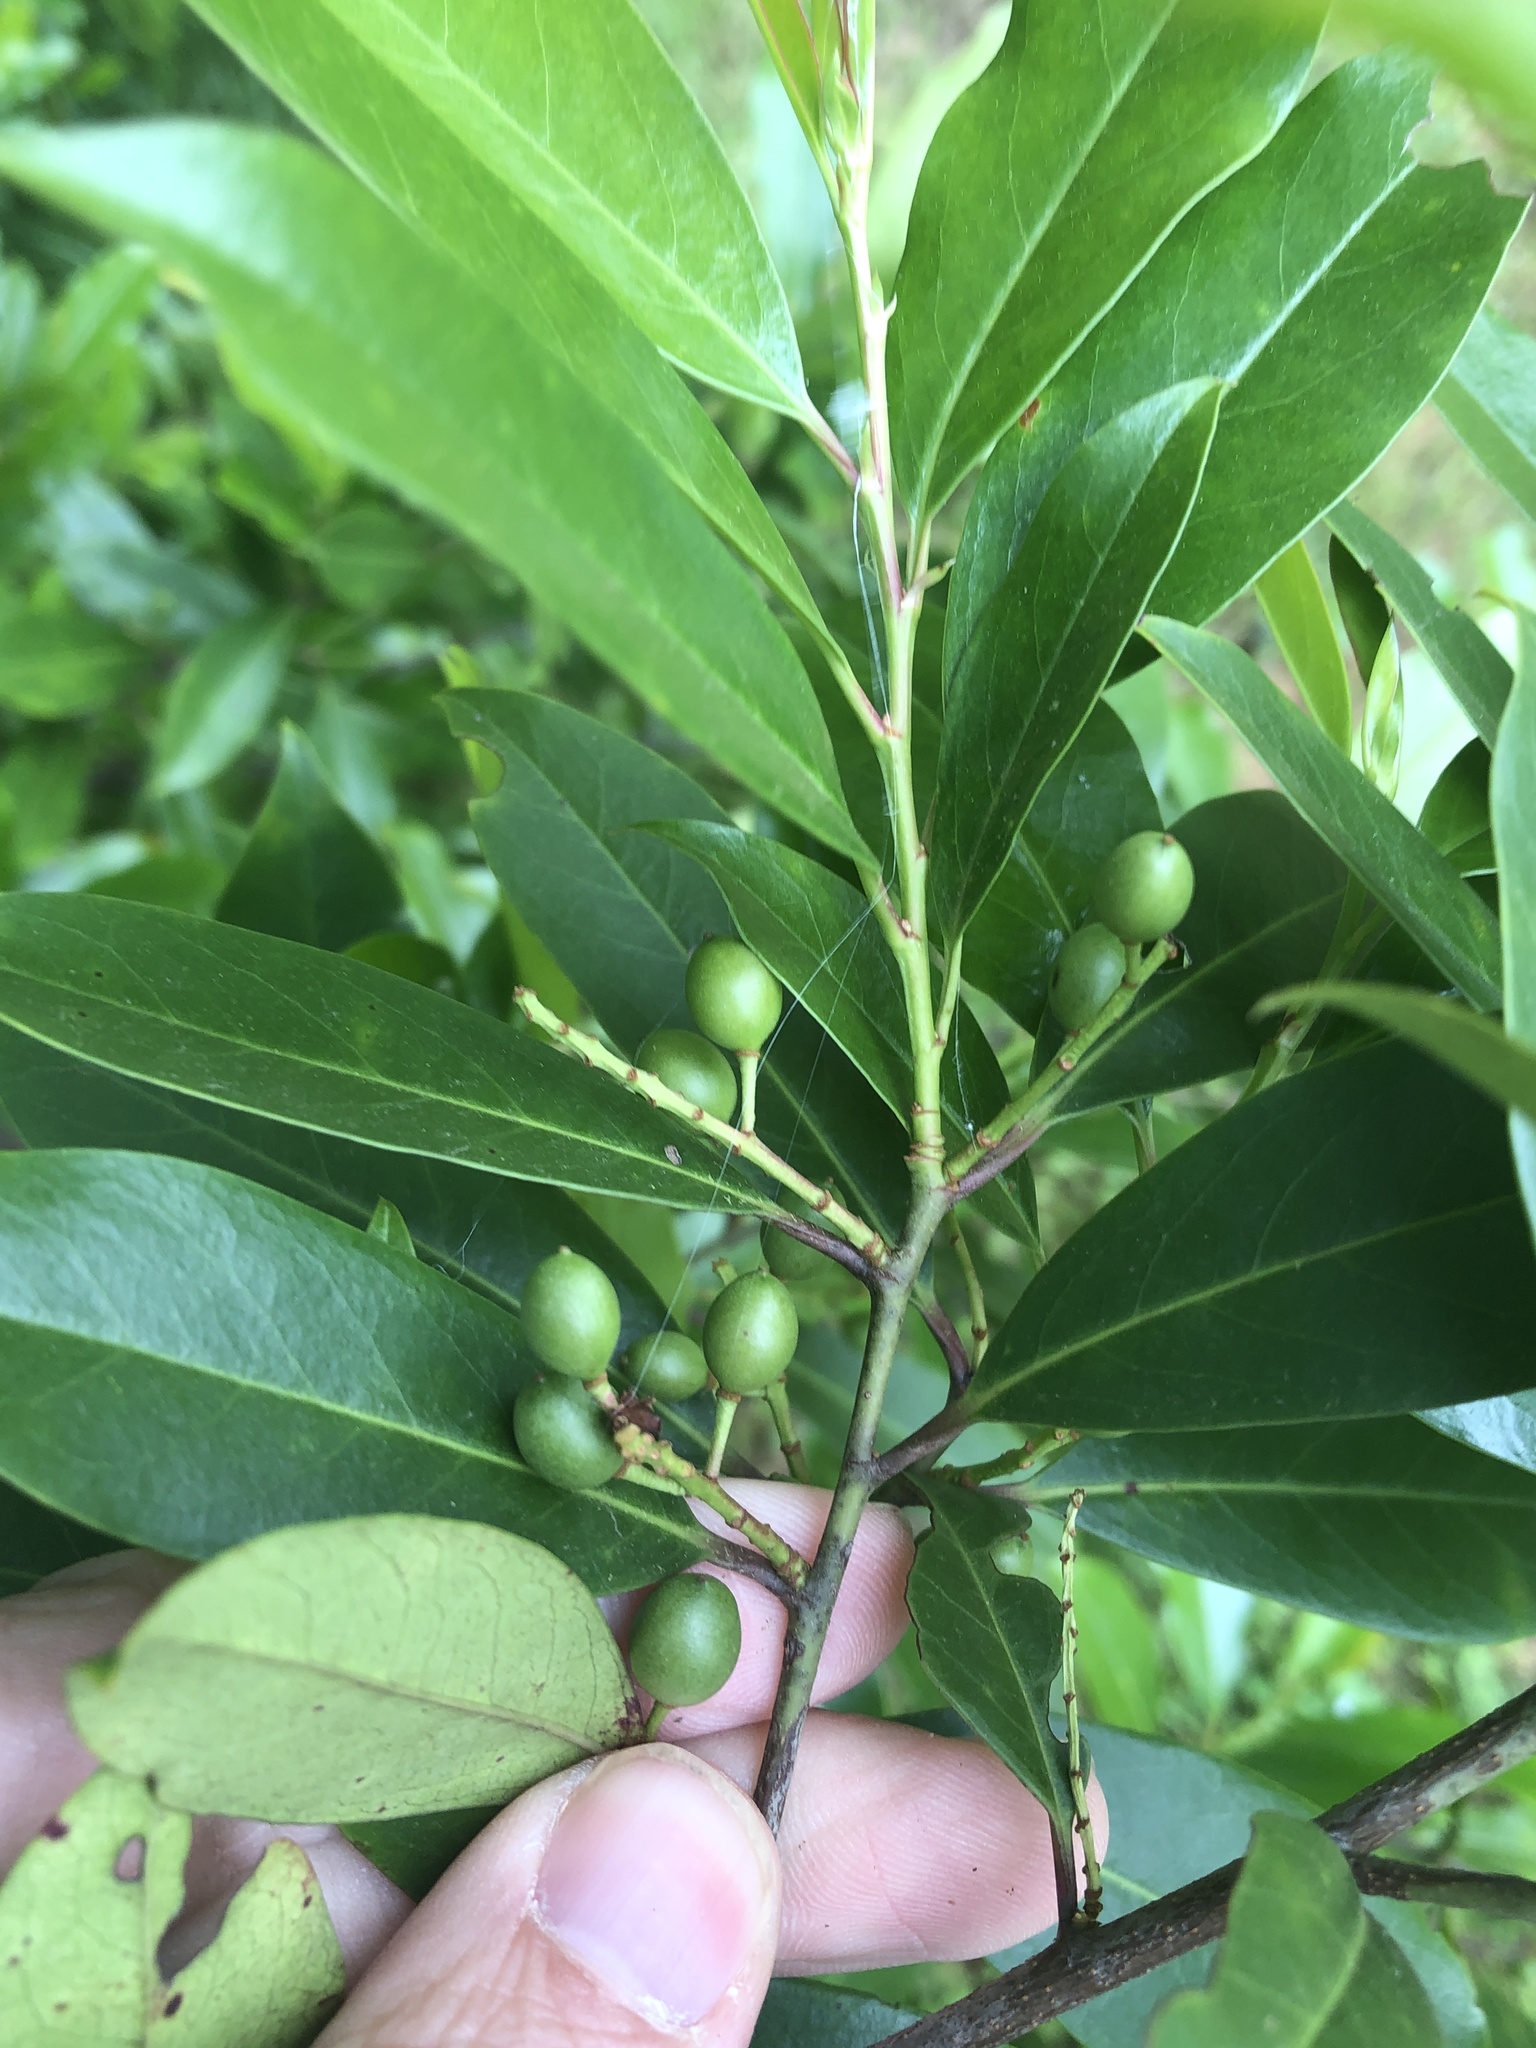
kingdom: Plantae
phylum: Tracheophyta
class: Magnoliopsida
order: Rosales
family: Rosaceae
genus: Prunus
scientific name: Prunus caroliniana
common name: Carolina laurel cherry
